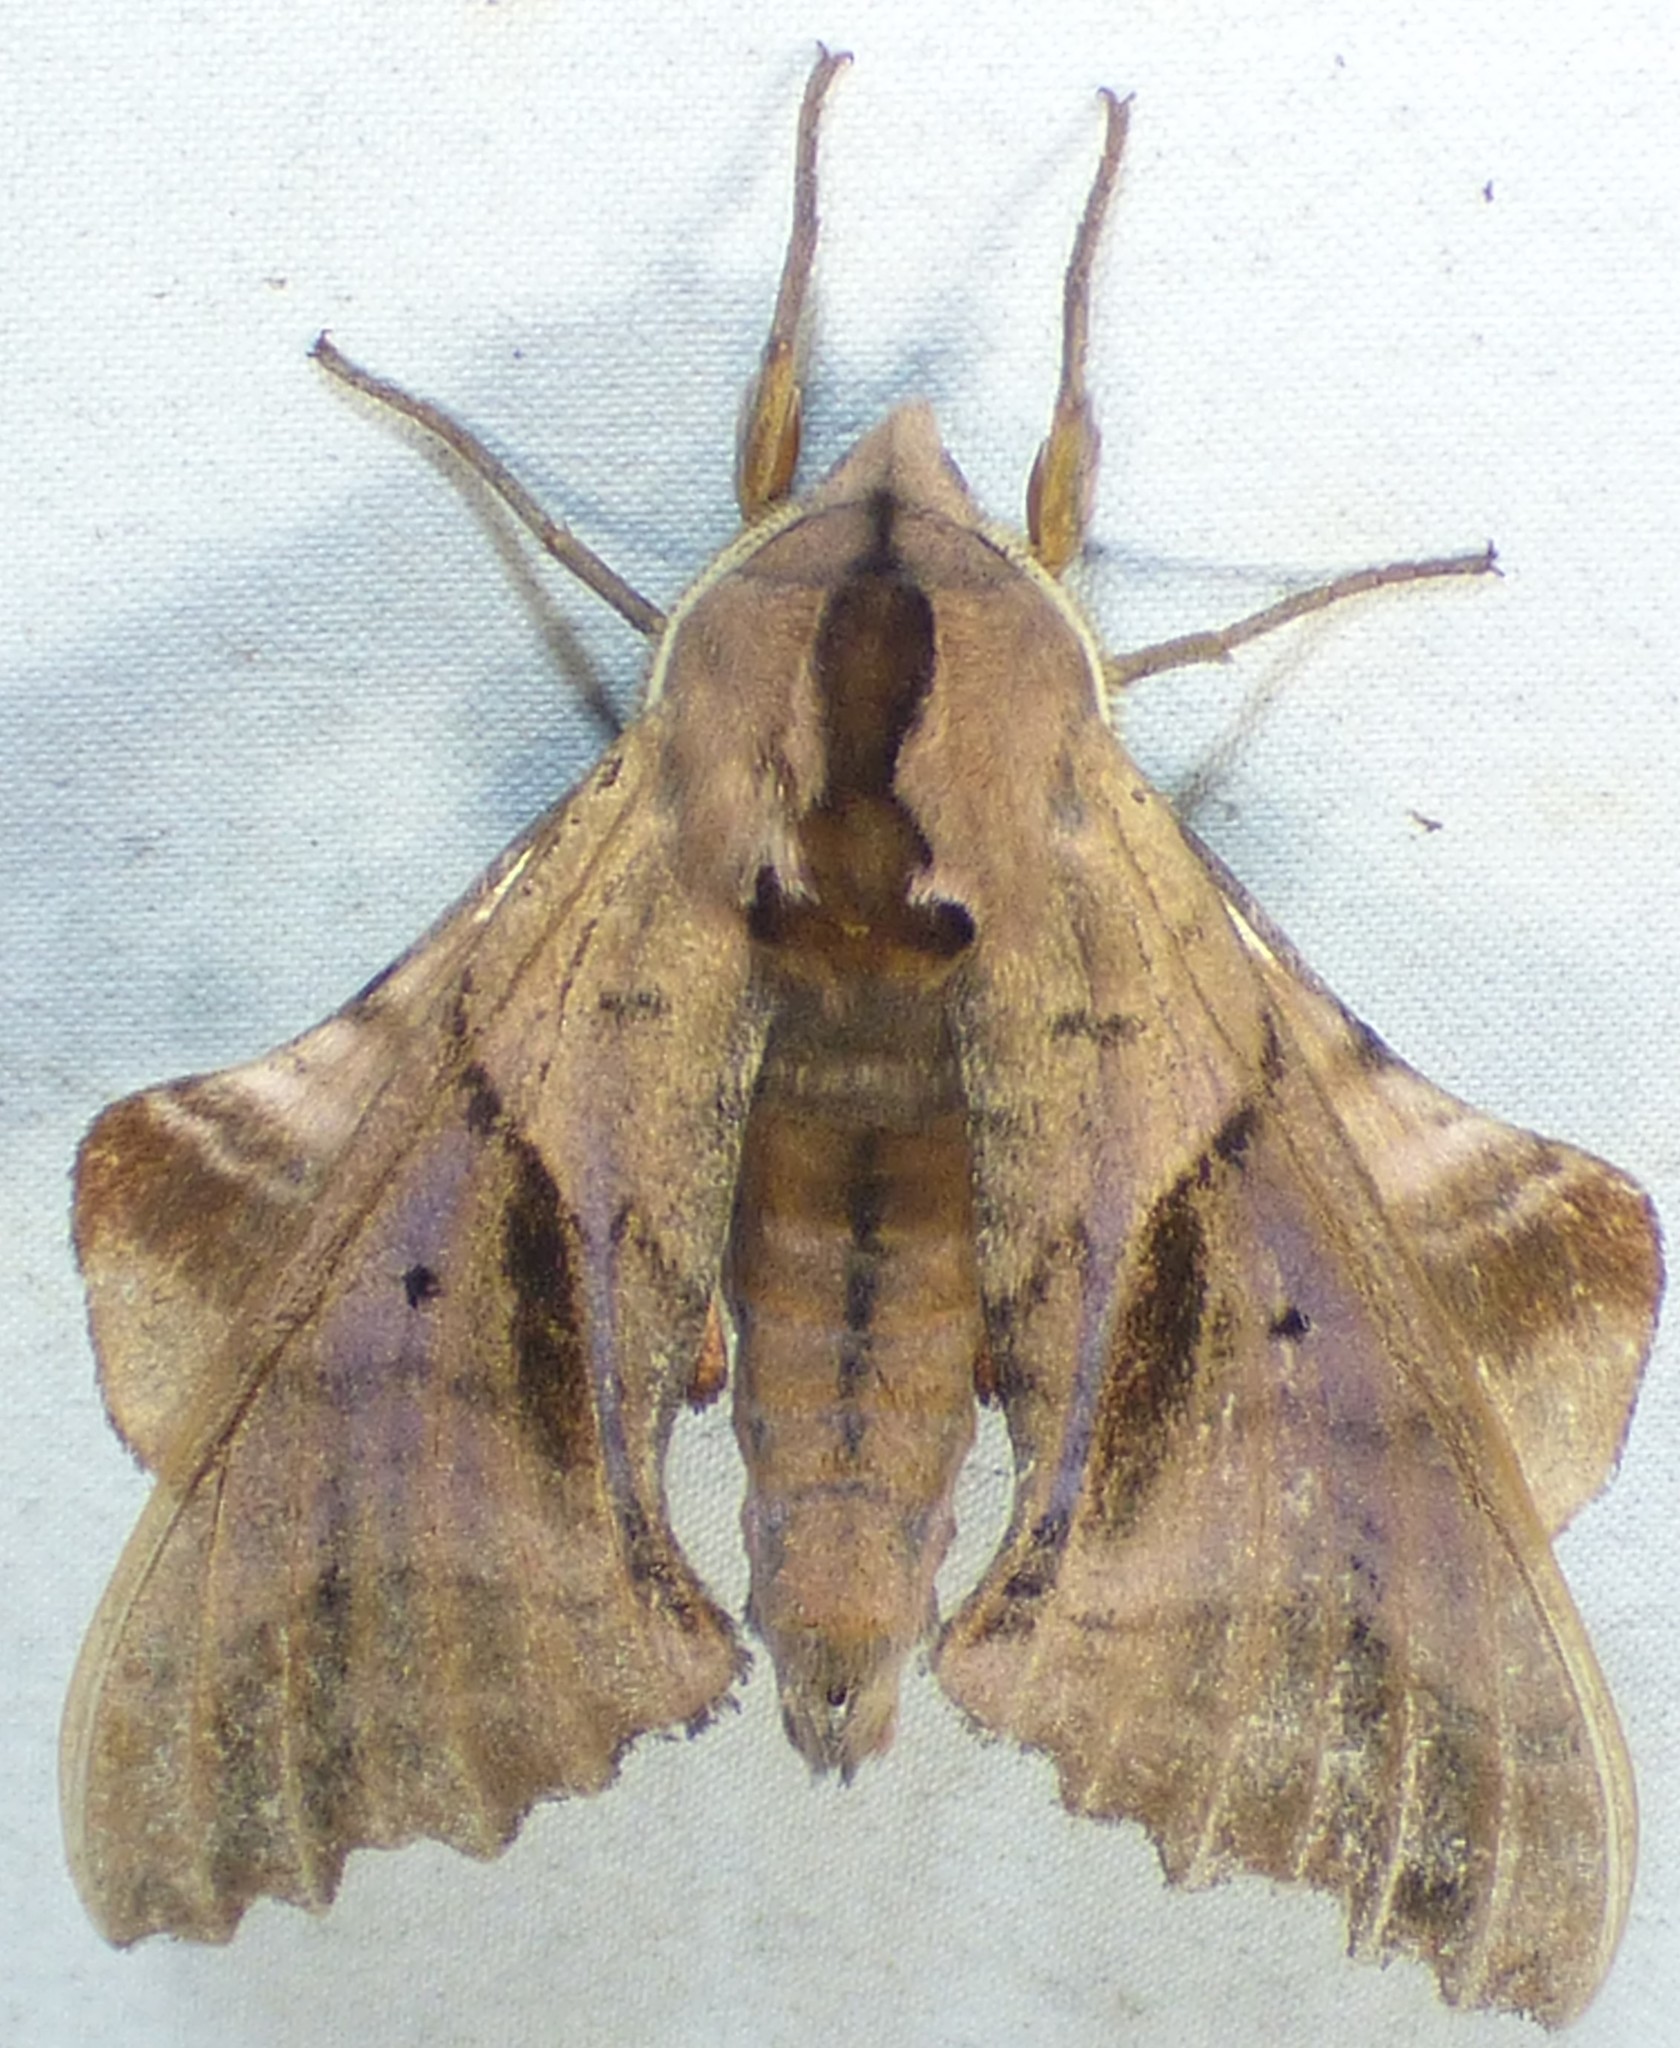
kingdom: Animalia
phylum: Arthropoda
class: Insecta
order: Lepidoptera
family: Sphingidae
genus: Paonias
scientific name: Paonias excaecata
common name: Blind-eyed sphinx
